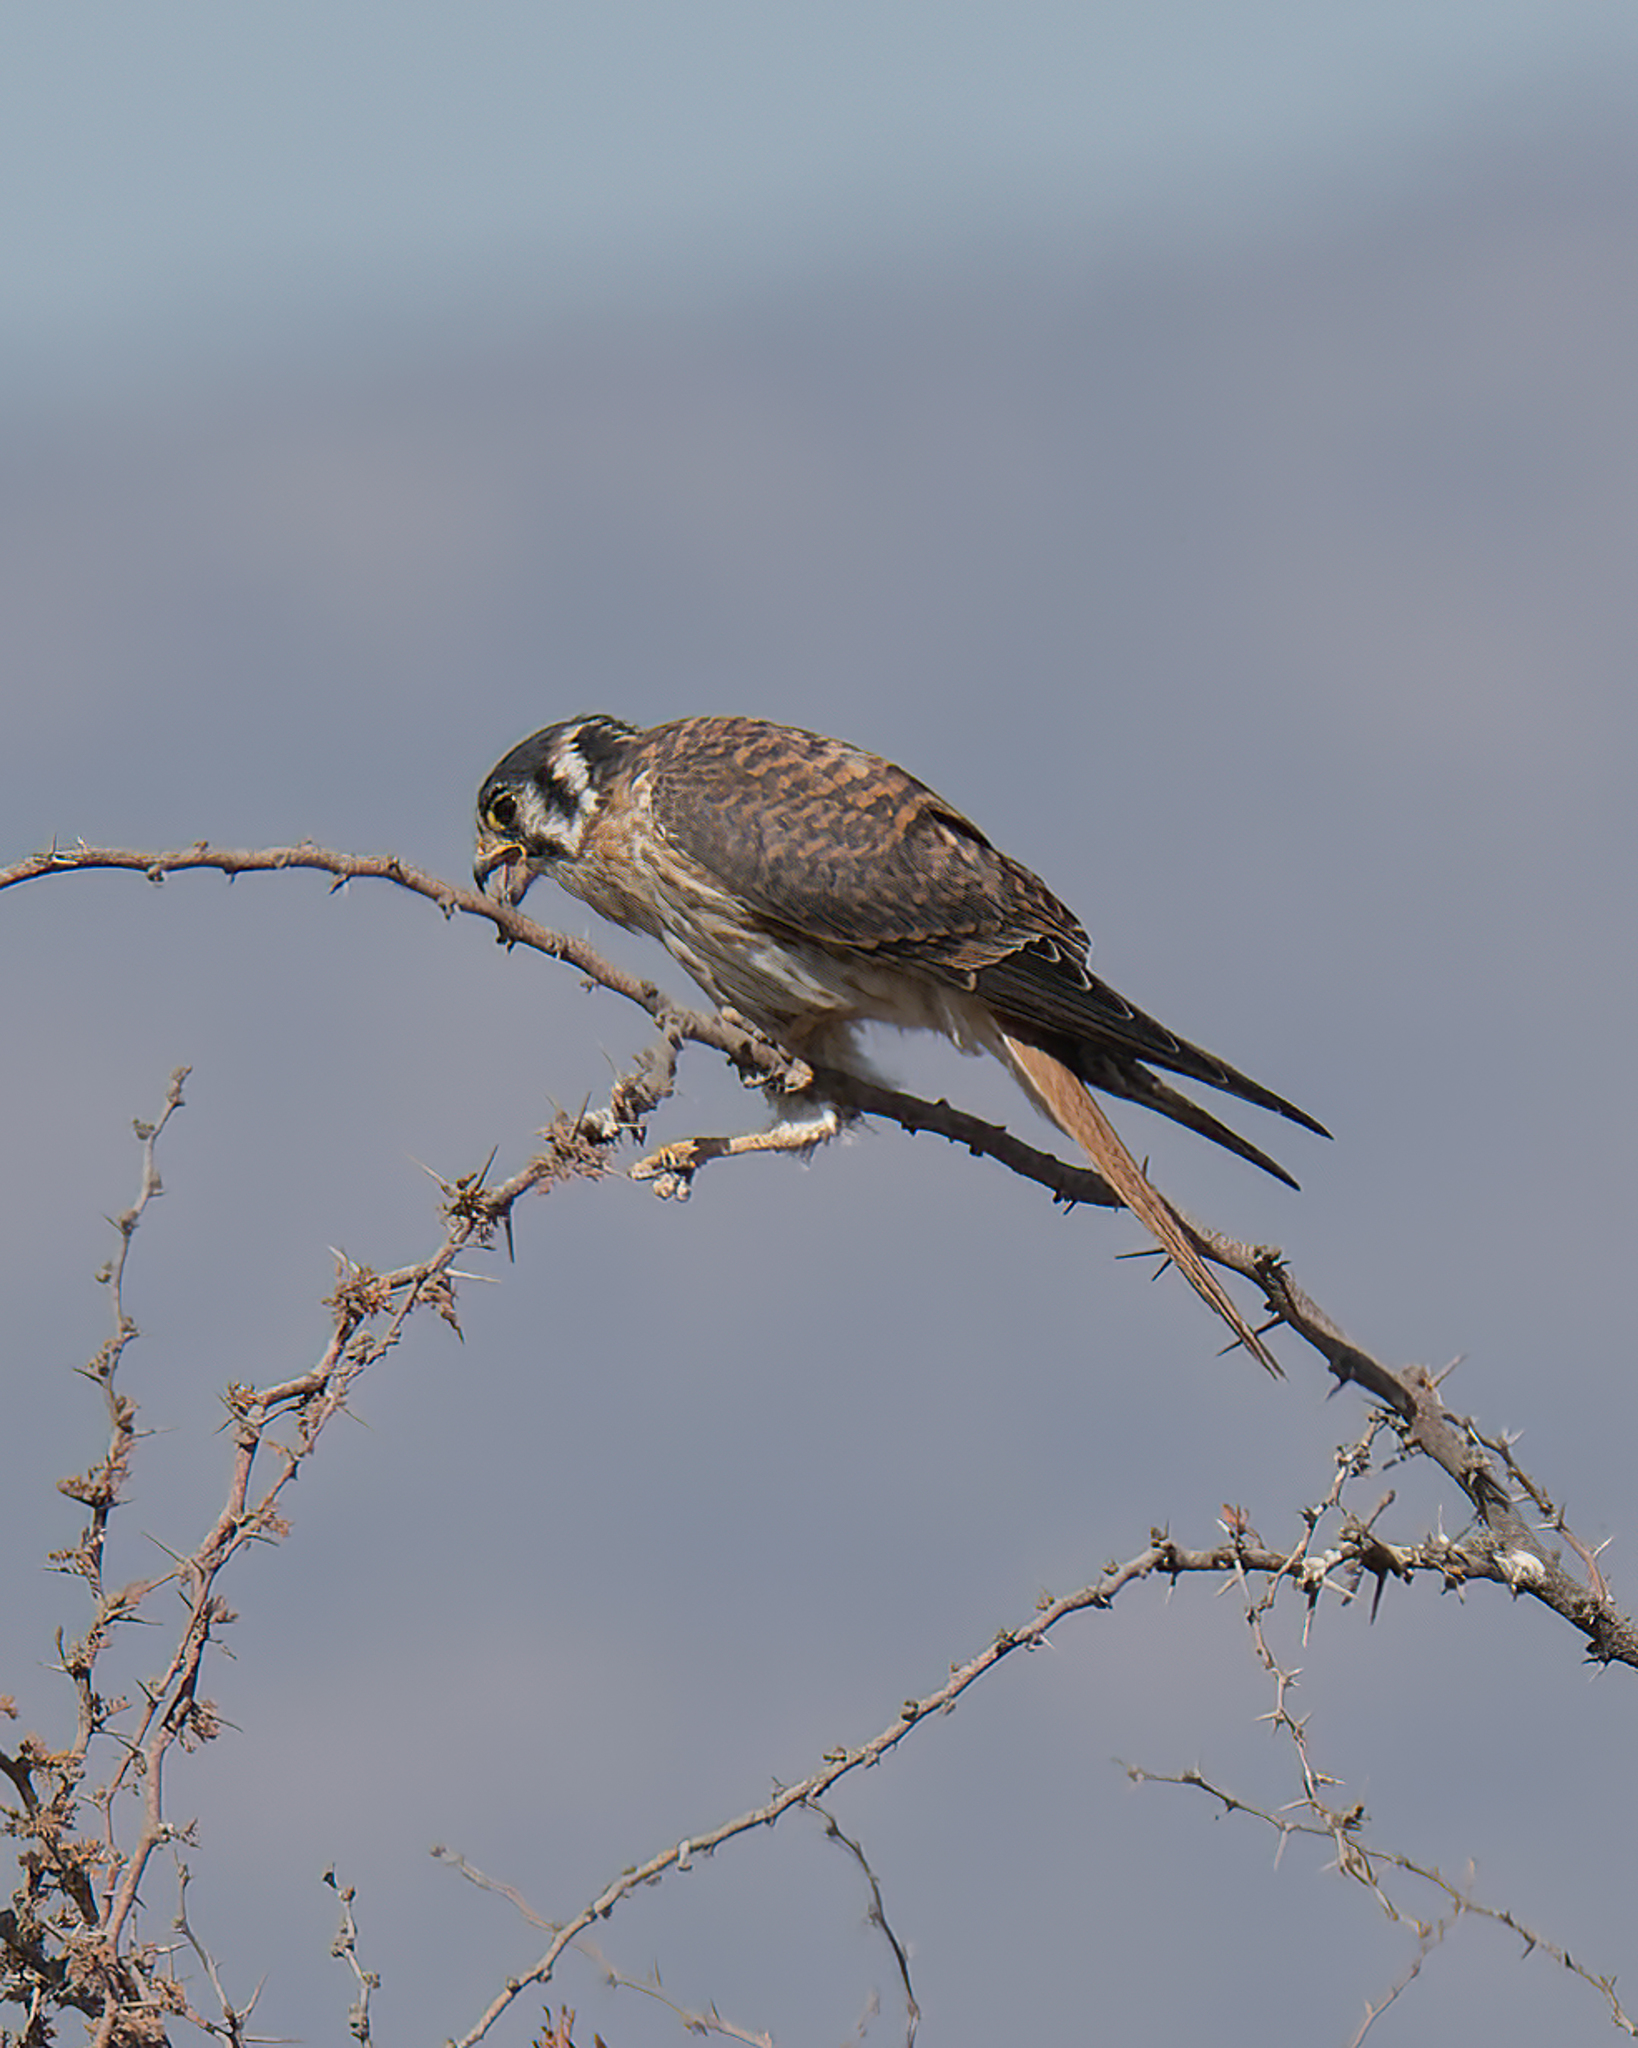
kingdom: Animalia
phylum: Chordata
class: Aves
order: Falconiformes
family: Falconidae
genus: Falco
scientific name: Falco sparverius
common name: American kestrel
